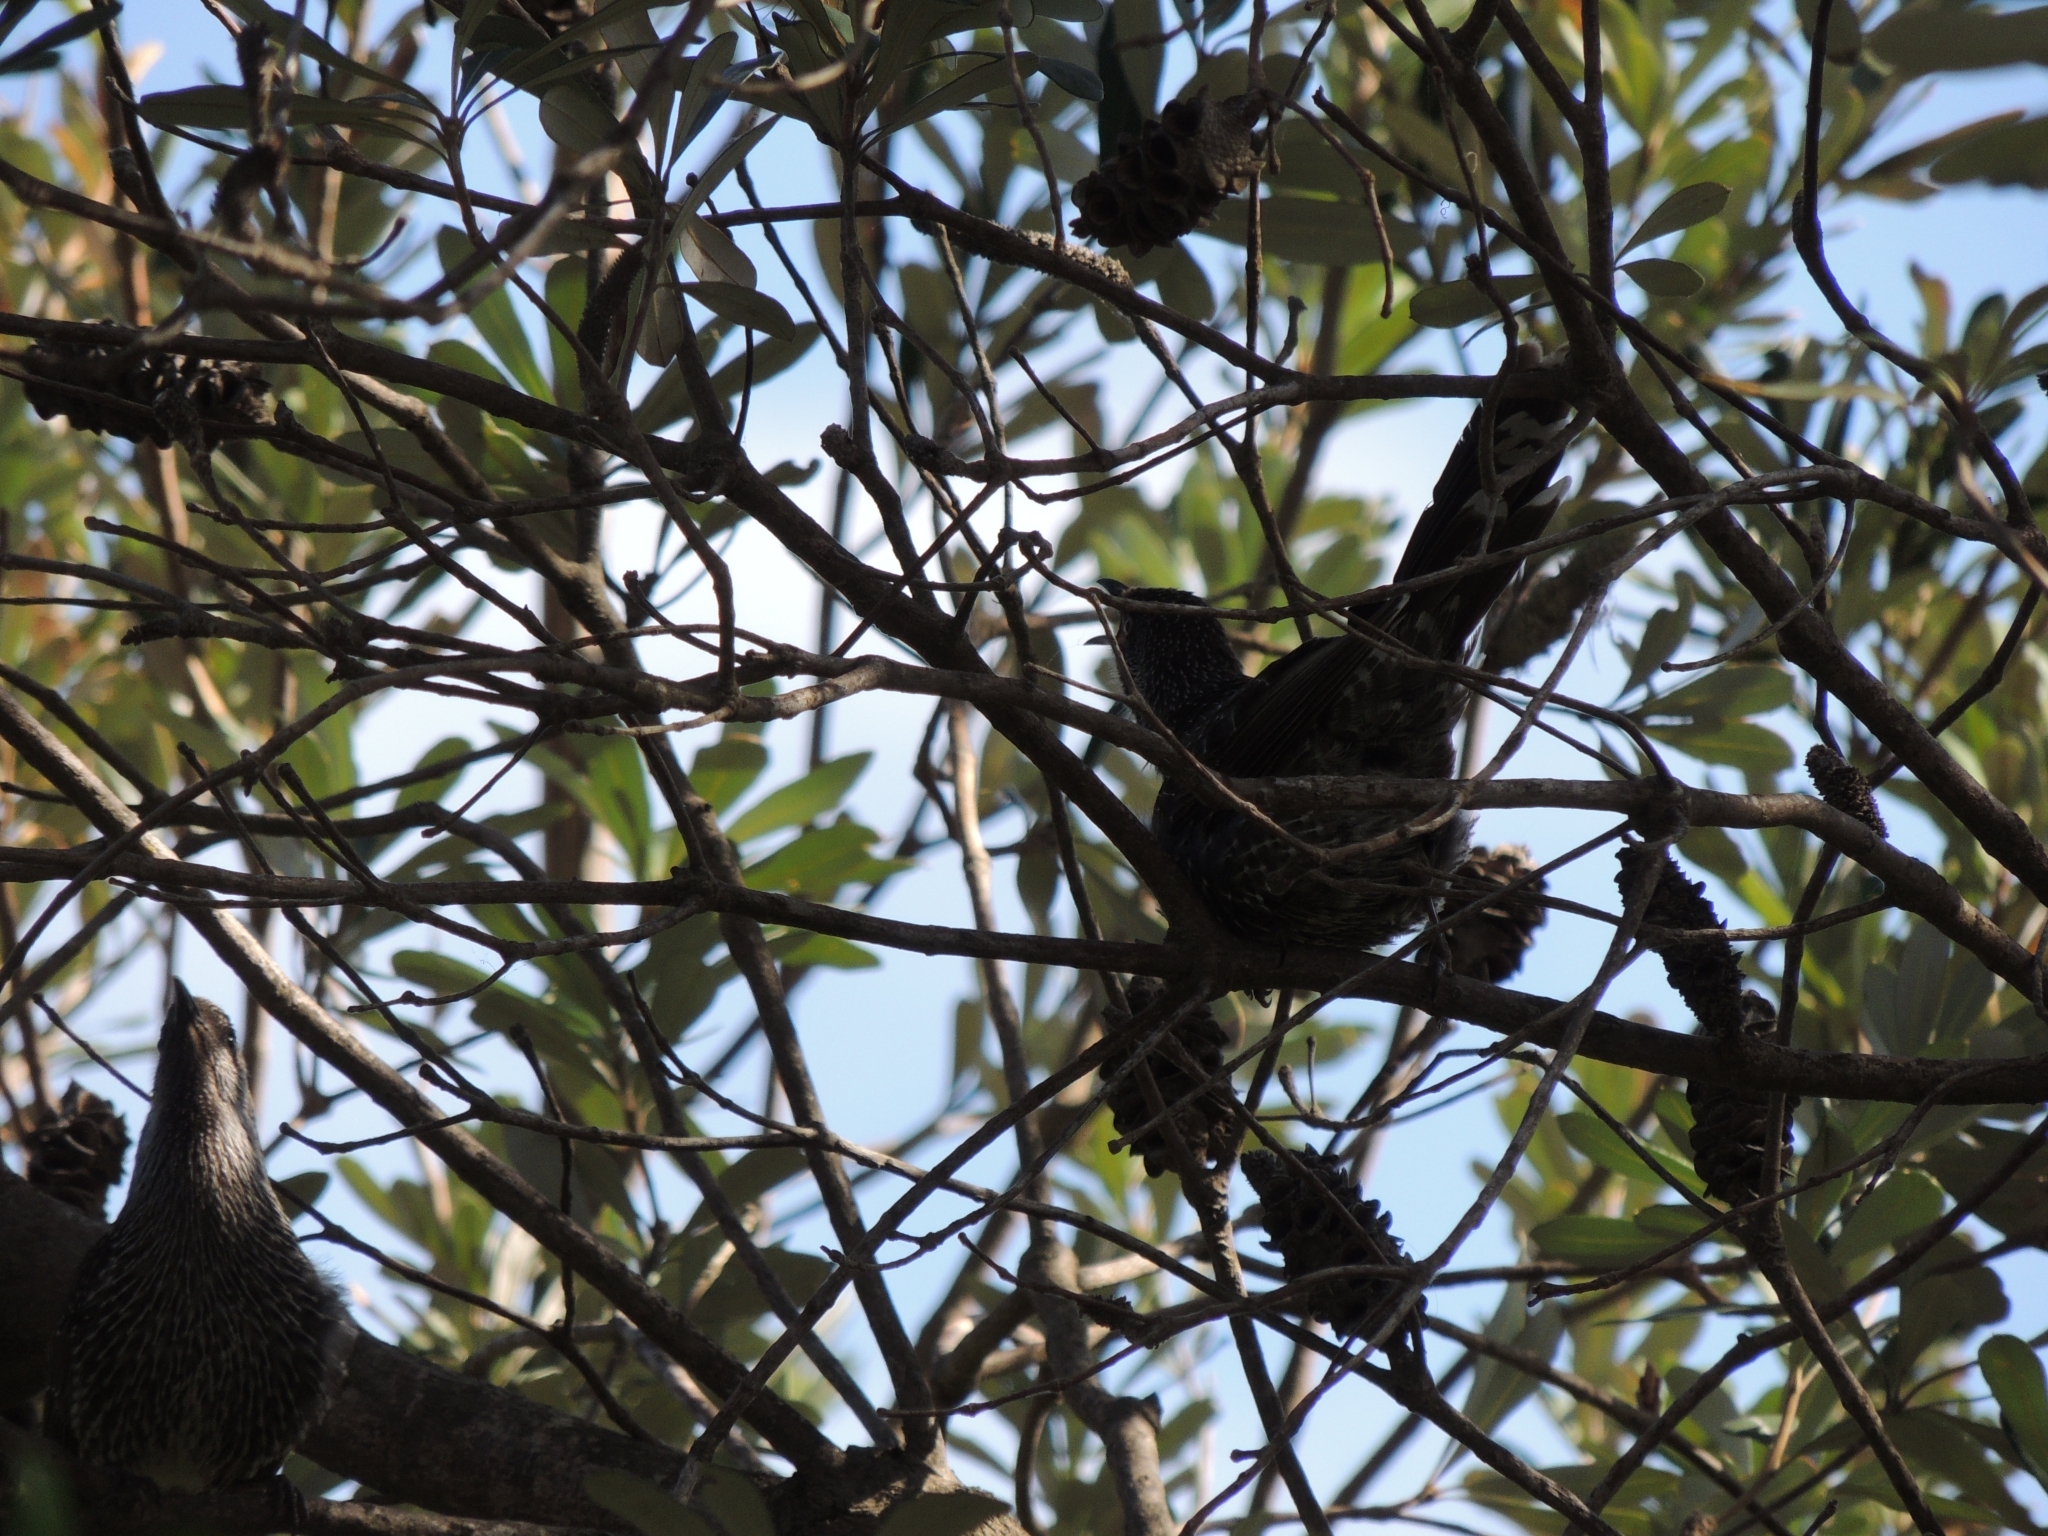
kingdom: Animalia
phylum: Chordata
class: Aves
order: Passeriformes
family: Meliphagidae
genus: Anthochaera
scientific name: Anthochaera chrysoptera
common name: Little wattlebird
